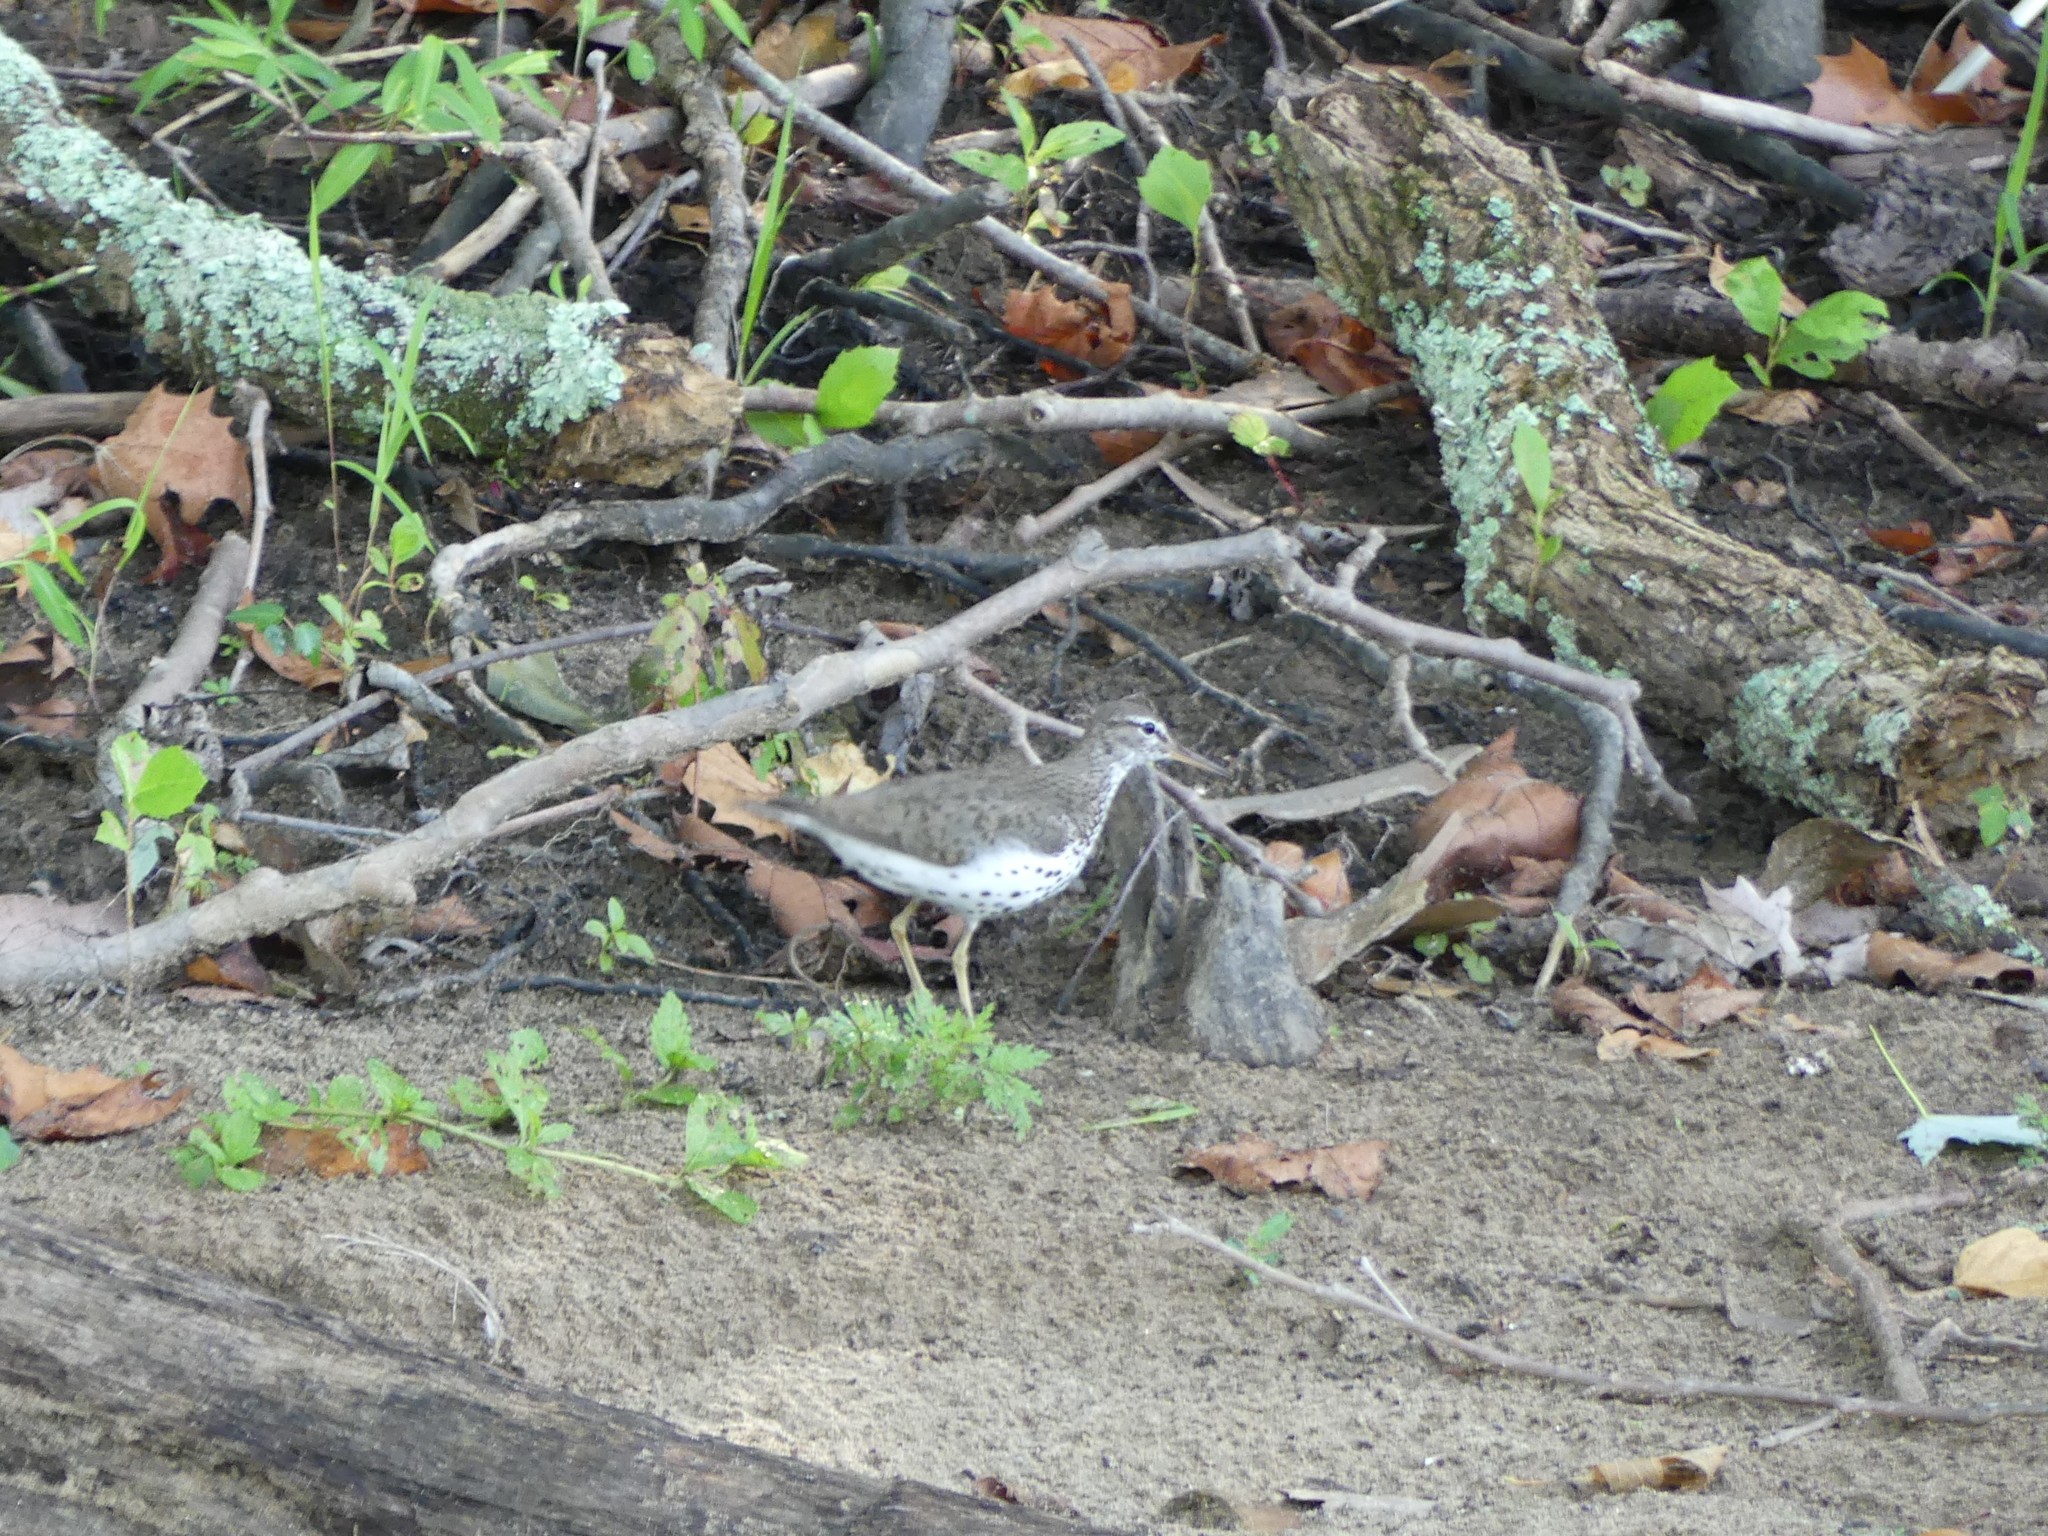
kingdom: Animalia
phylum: Chordata
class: Aves
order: Charadriiformes
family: Scolopacidae
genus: Actitis
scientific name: Actitis macularius
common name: Spotted sandpiper
